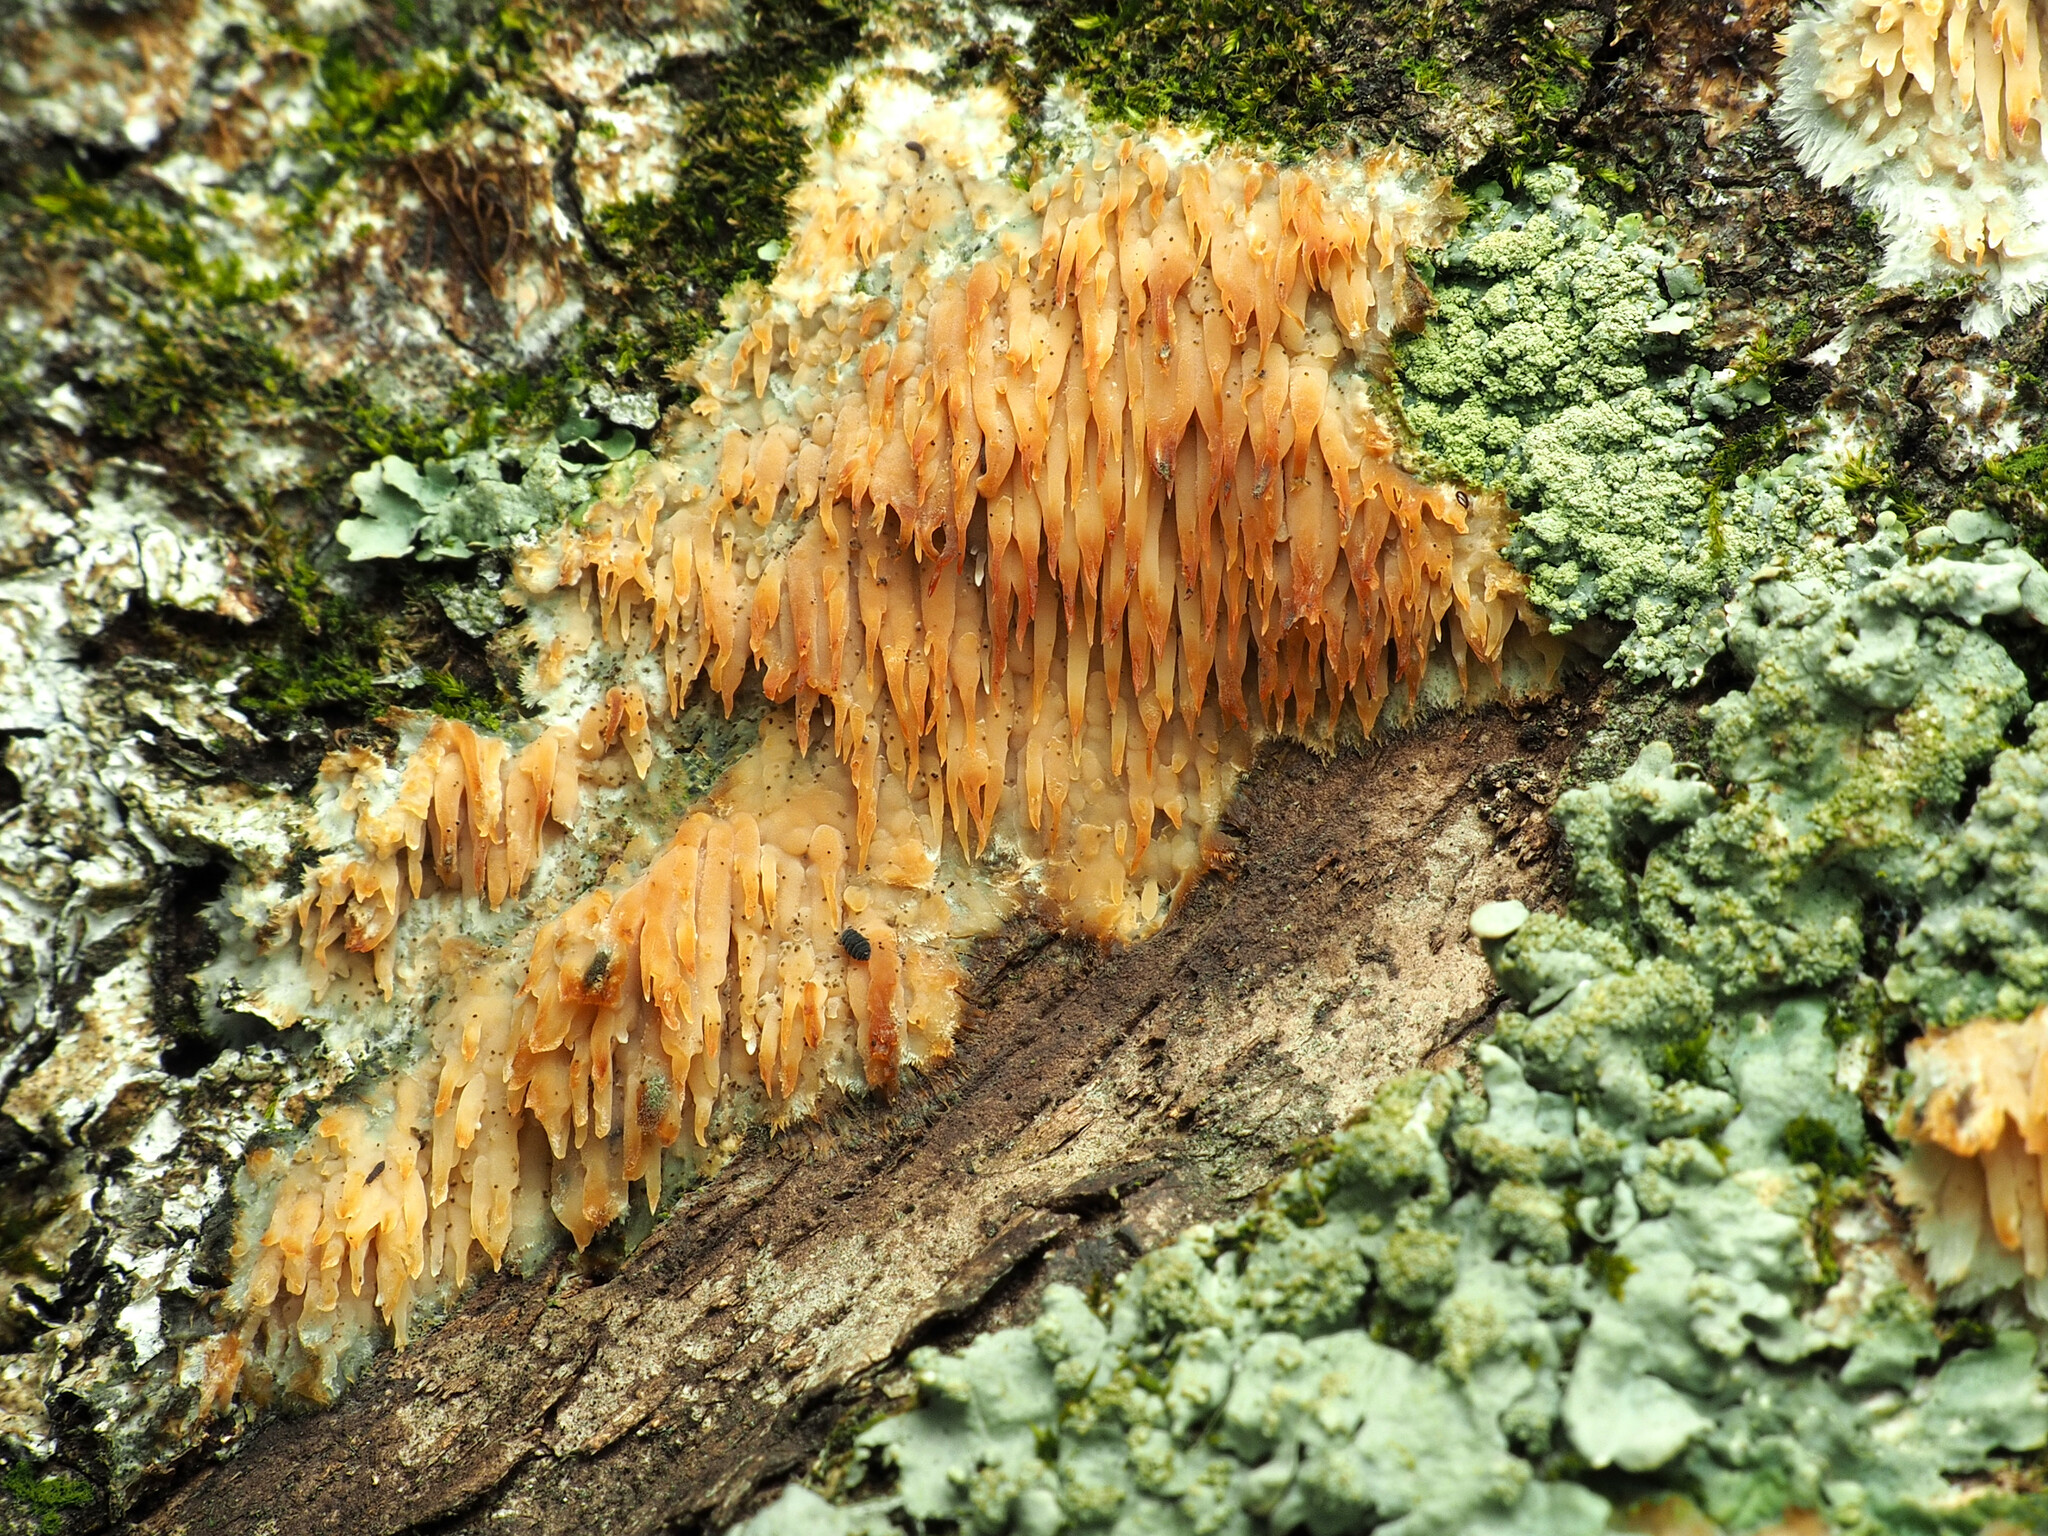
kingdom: Fungi
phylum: Basidiomycota
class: Agaricomycetes
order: Agaricales
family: Radulomycetaceae
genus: Radulomyces
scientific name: Radulomyces copelandii
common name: Asian beauty
